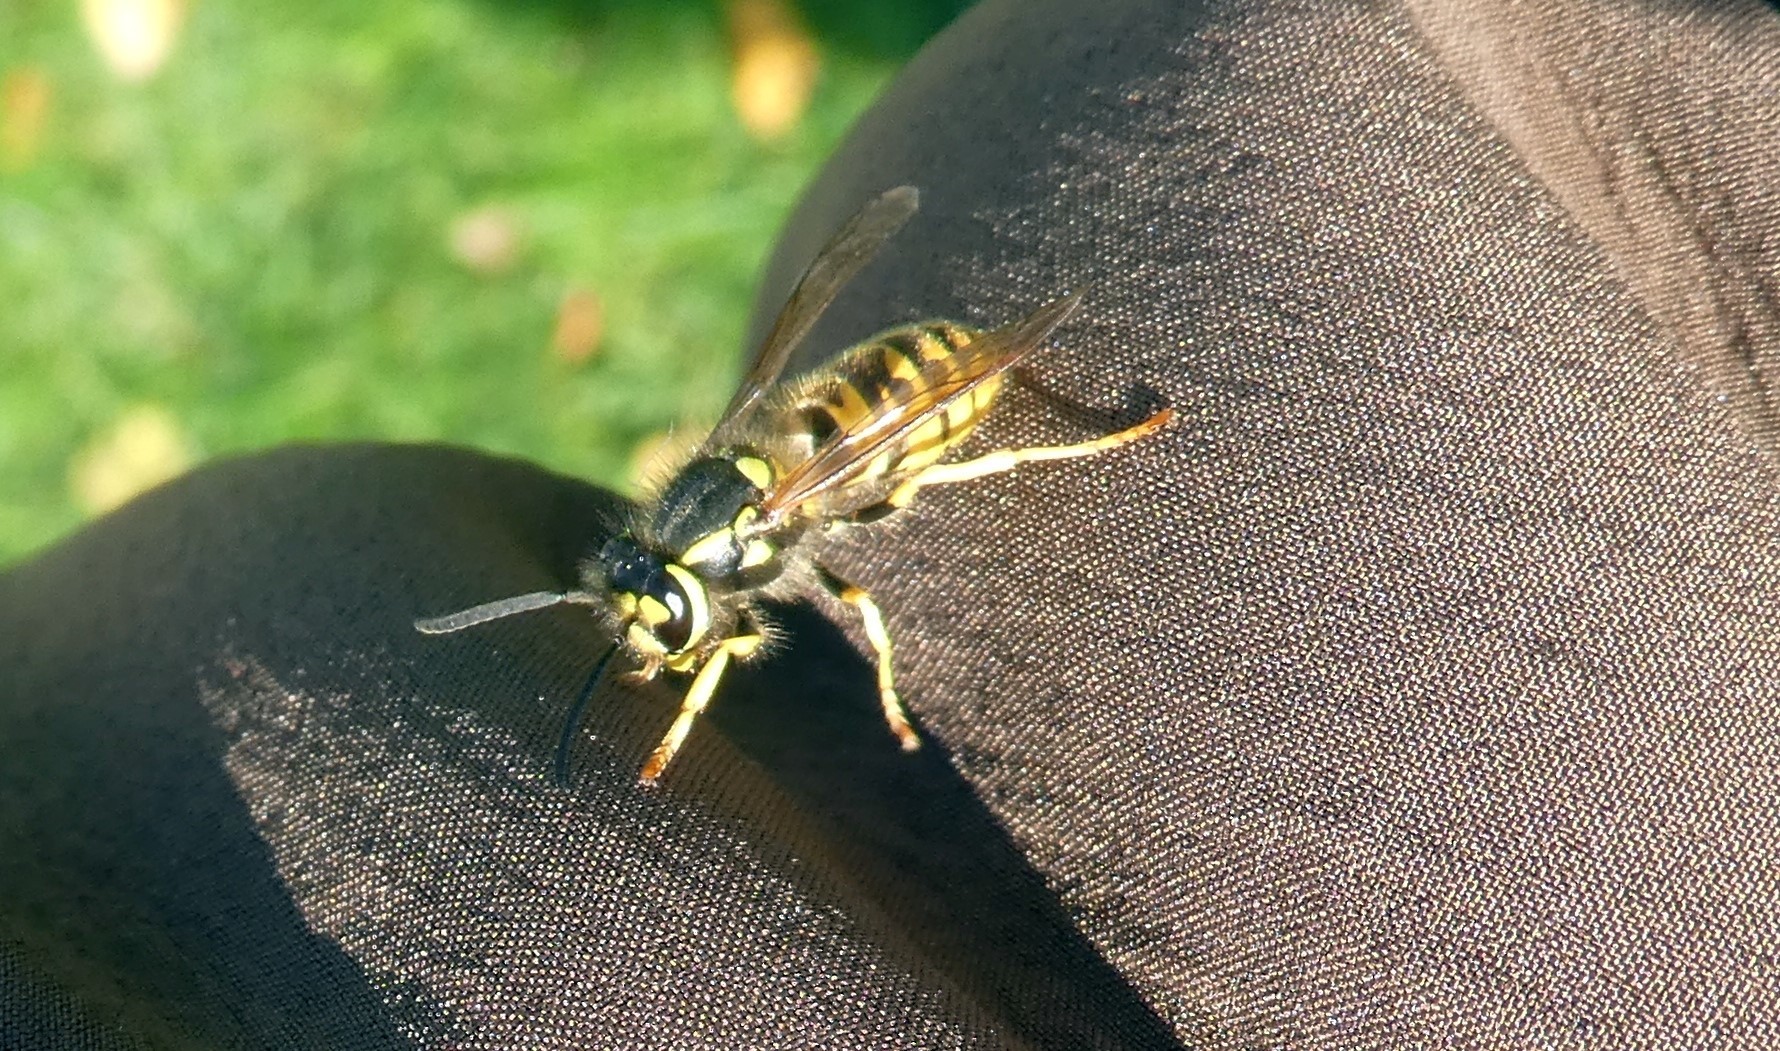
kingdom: Animalia
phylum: Arthropoda
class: Insecta
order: Hymenoptera
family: Vespidae
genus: Vespula
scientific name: Vespula germanica
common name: German wasp
